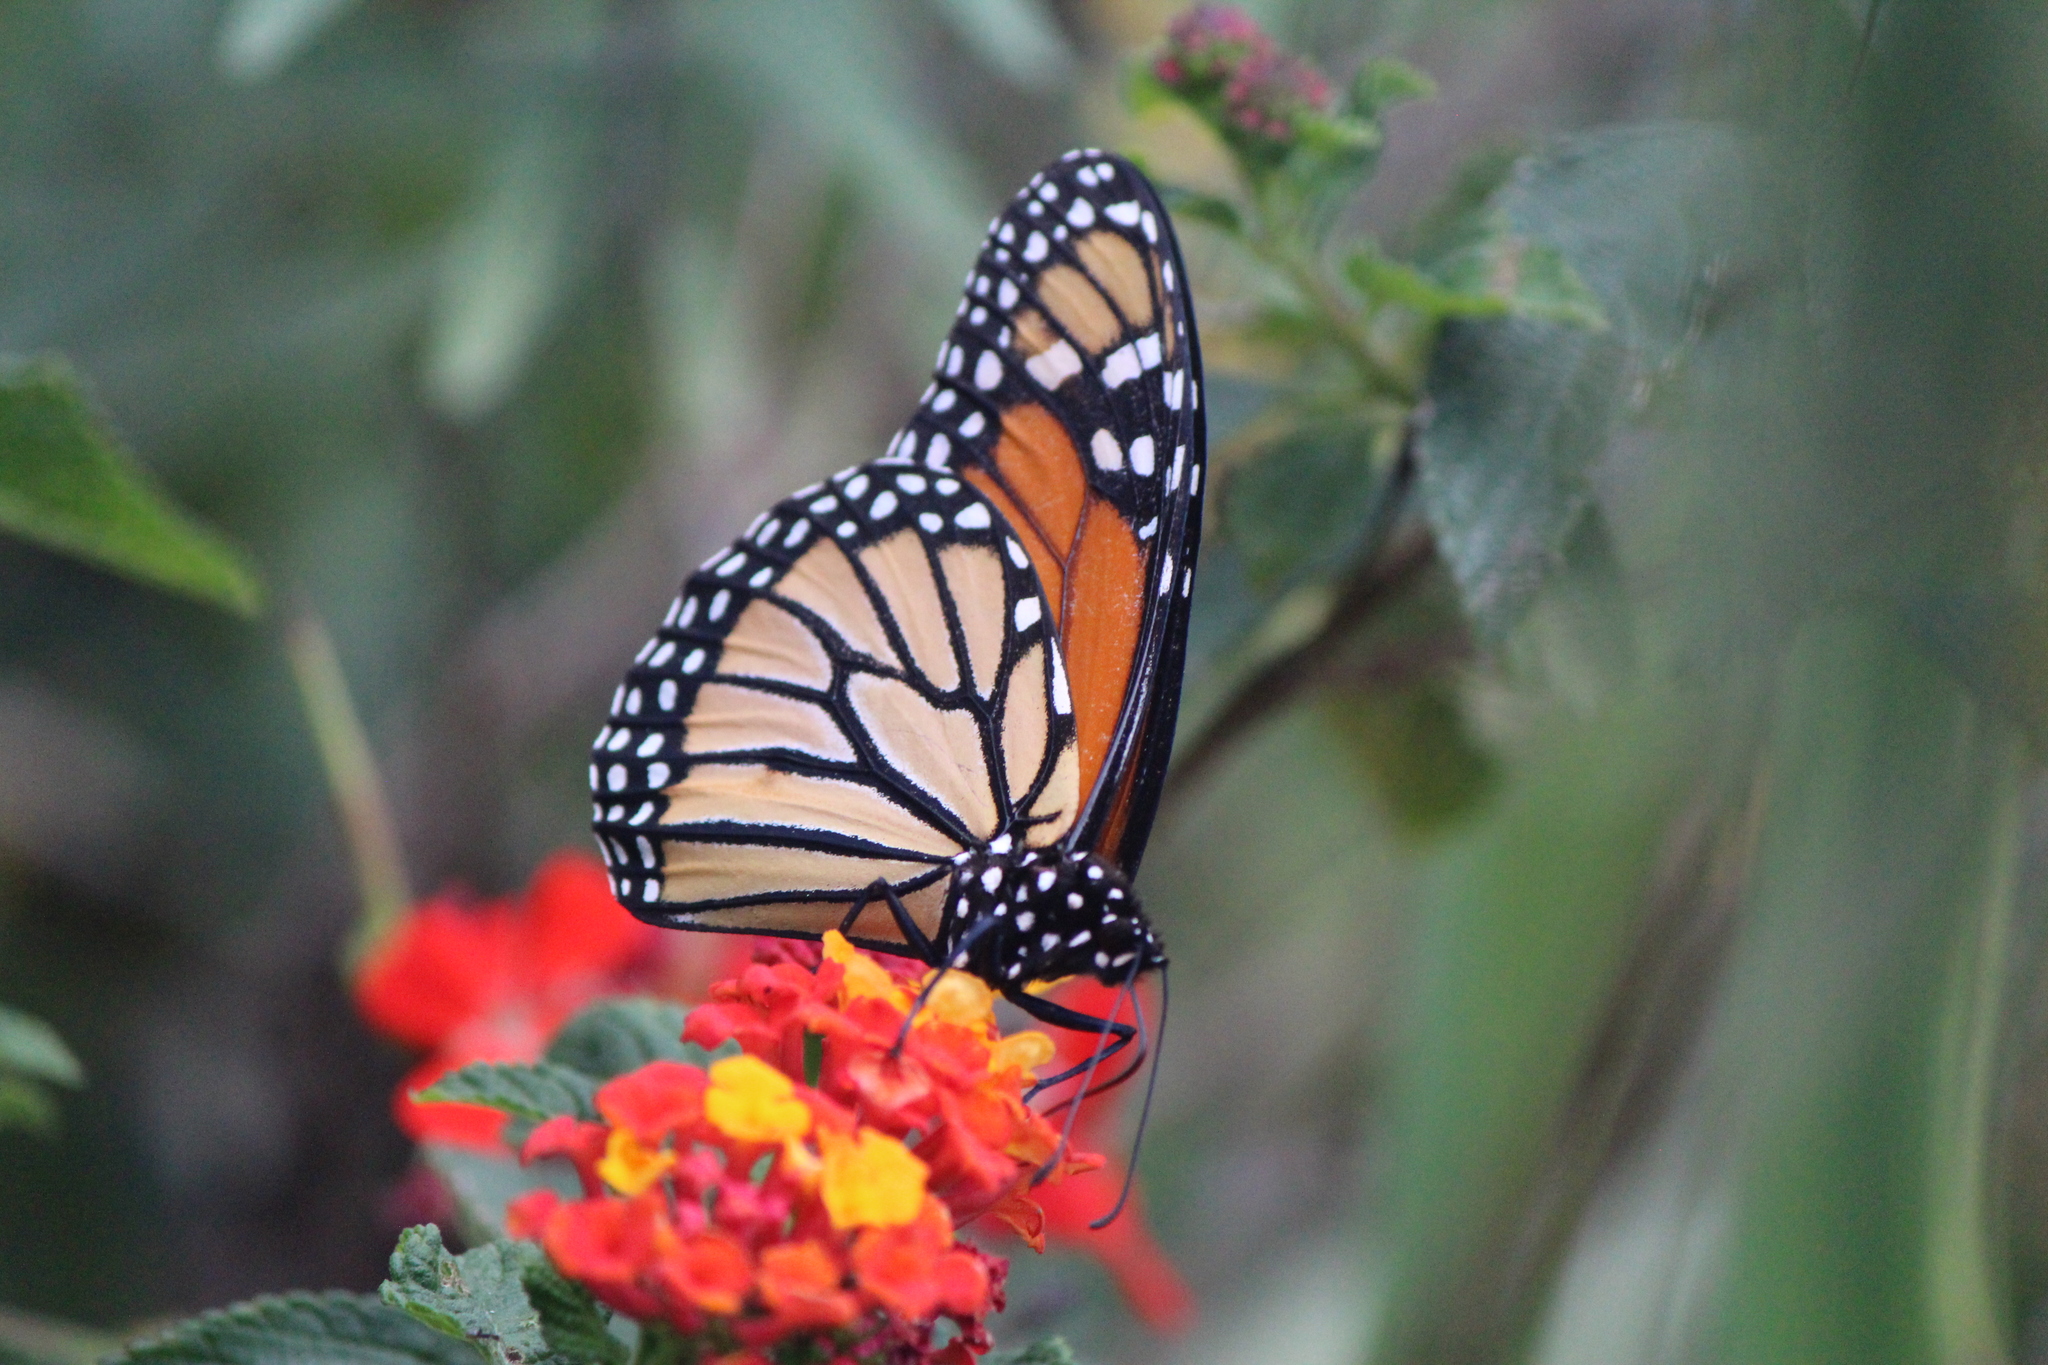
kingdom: Animalia
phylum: Arthropoda
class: Insecta
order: Lepidoptera
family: Nymphalidae
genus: Danaus
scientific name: Danaus plexippus
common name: Monarch
